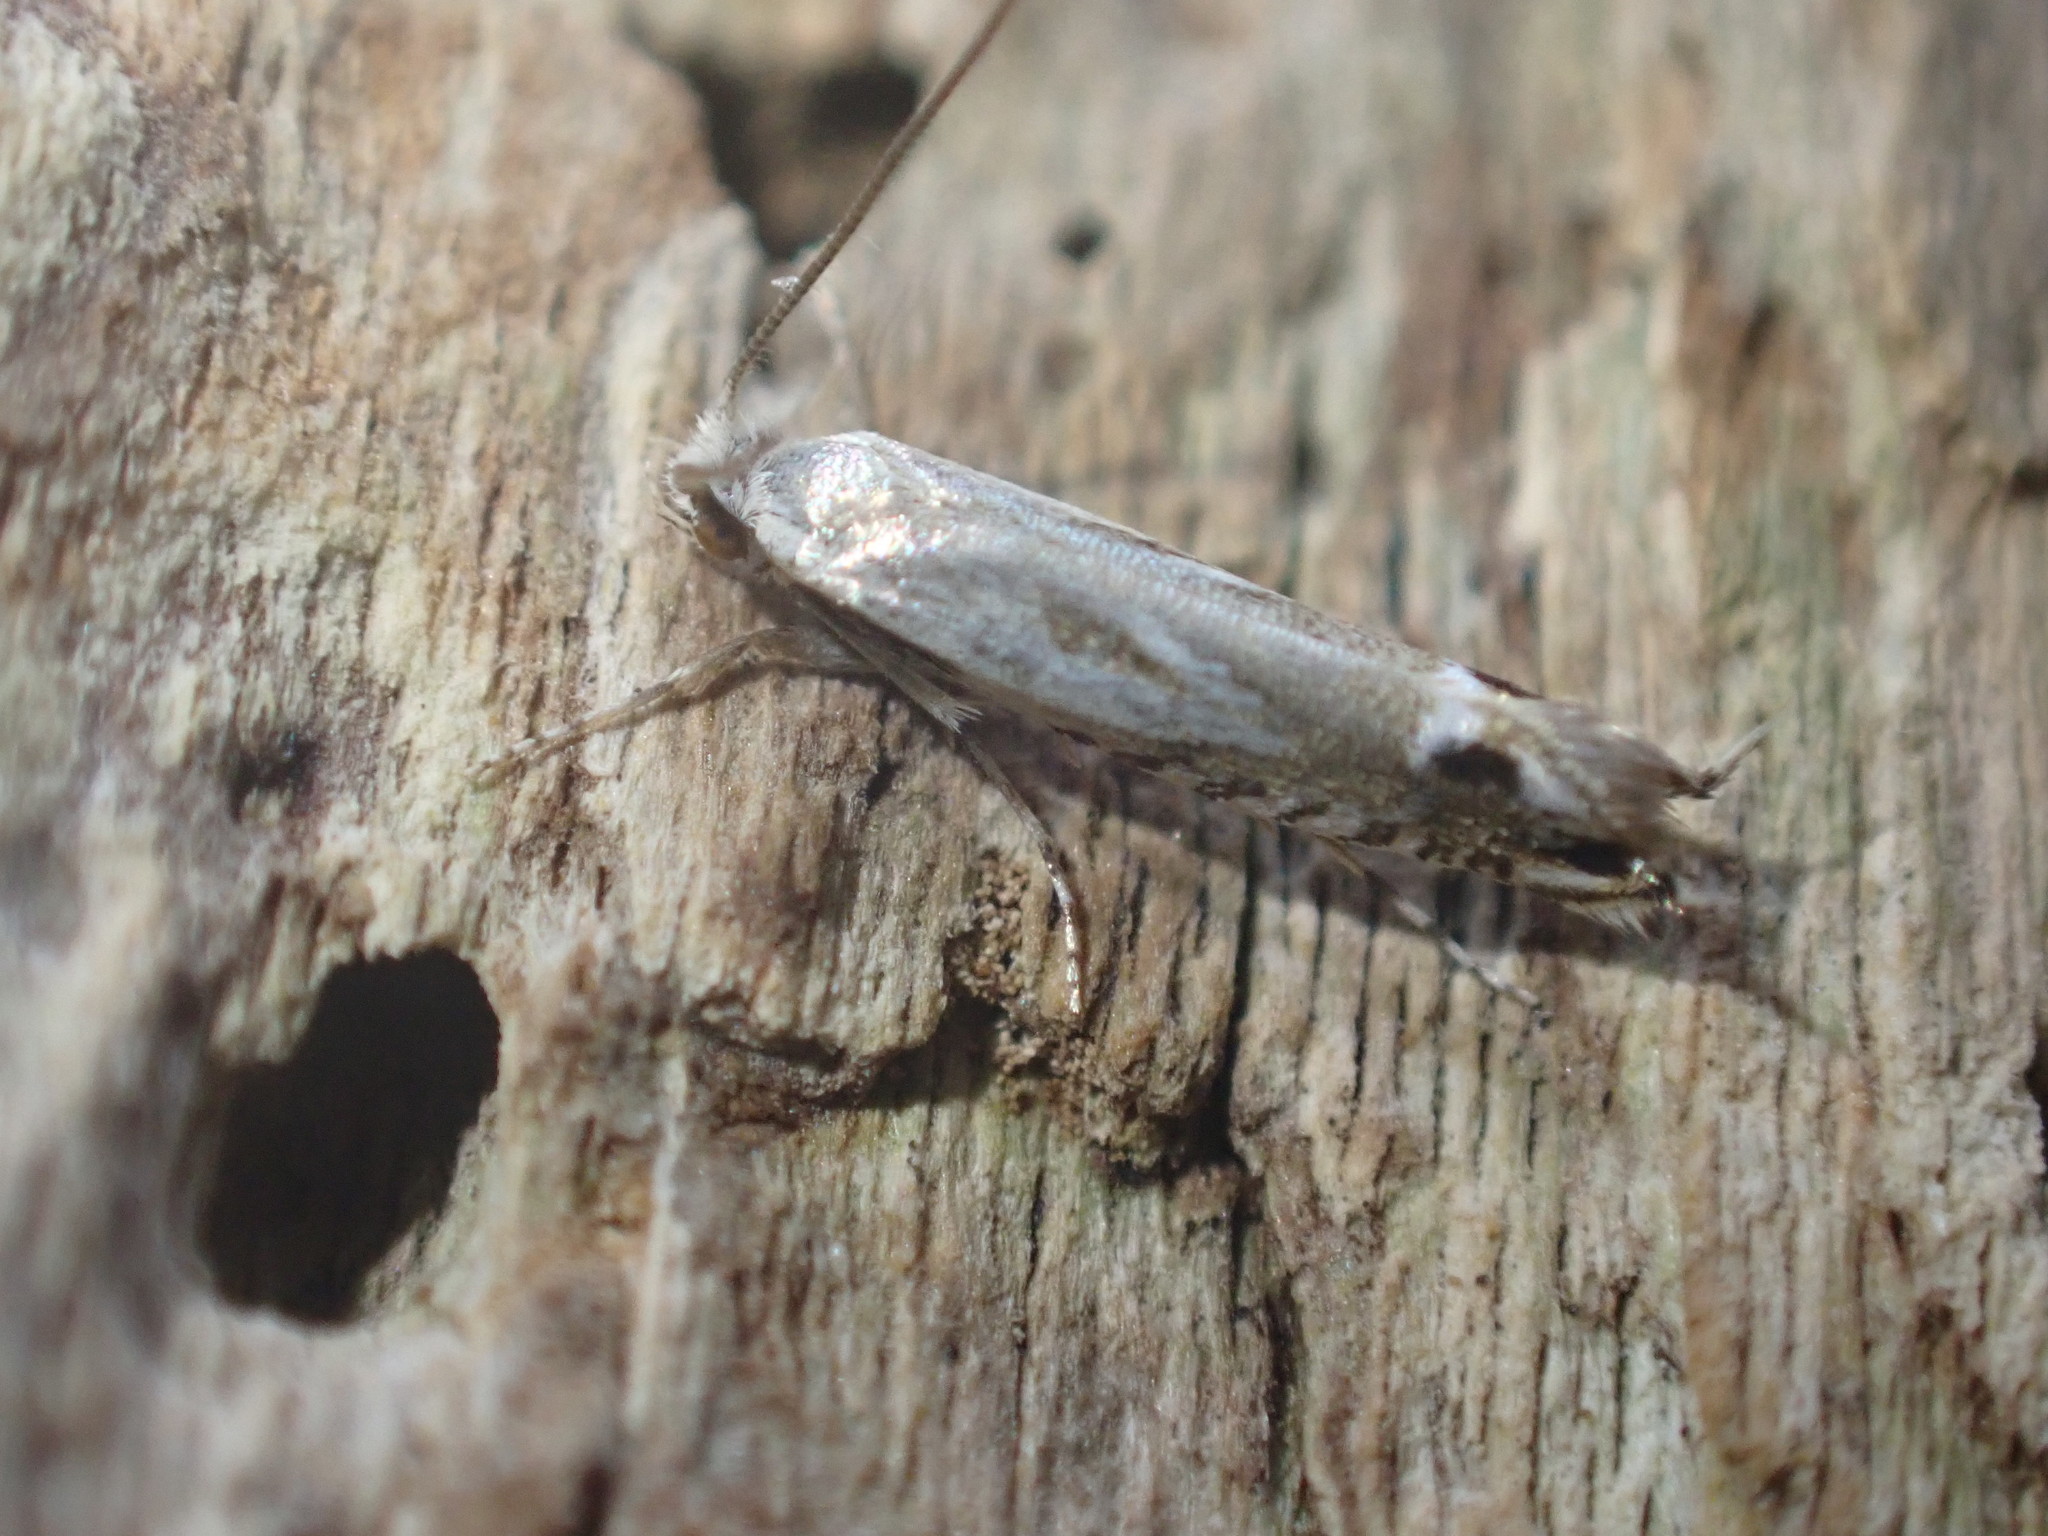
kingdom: Animalia
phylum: Arthropoda
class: Insecta
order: Lepidoptera
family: Tineidae
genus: Erechthias
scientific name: Erechthias decoranda
